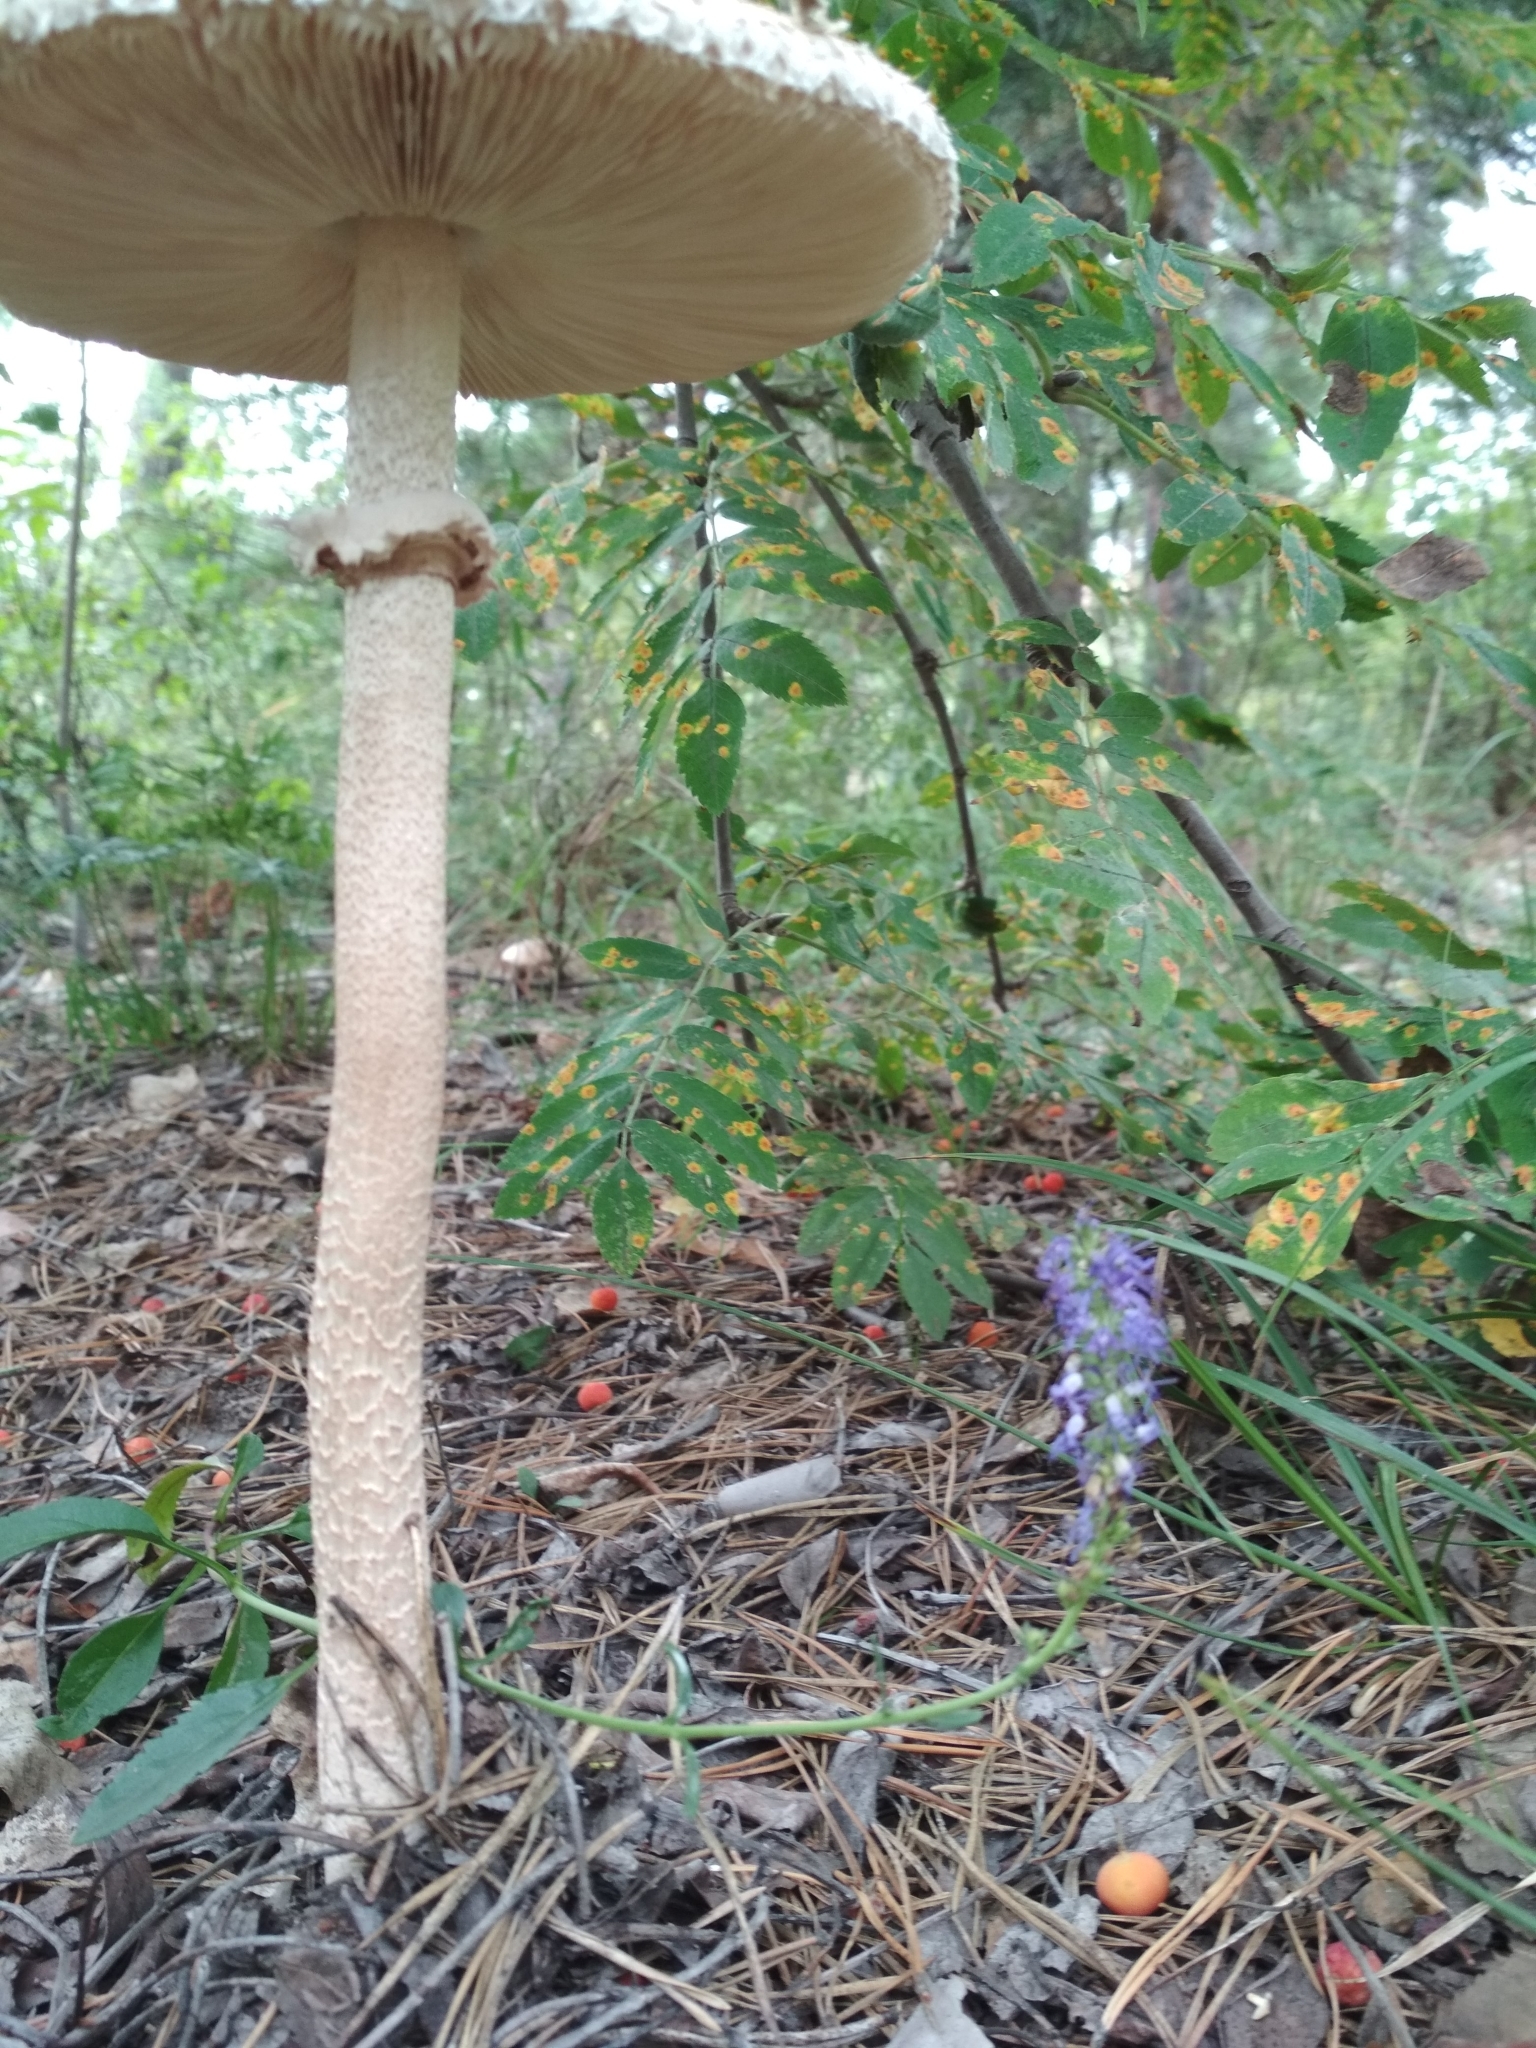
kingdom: Fungi
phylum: Basidiomycota
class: Agaricomycetes
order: Agaricales
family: Agaricaceae
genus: Macrolepiota
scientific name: Macrolepiota procera
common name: Parasol
